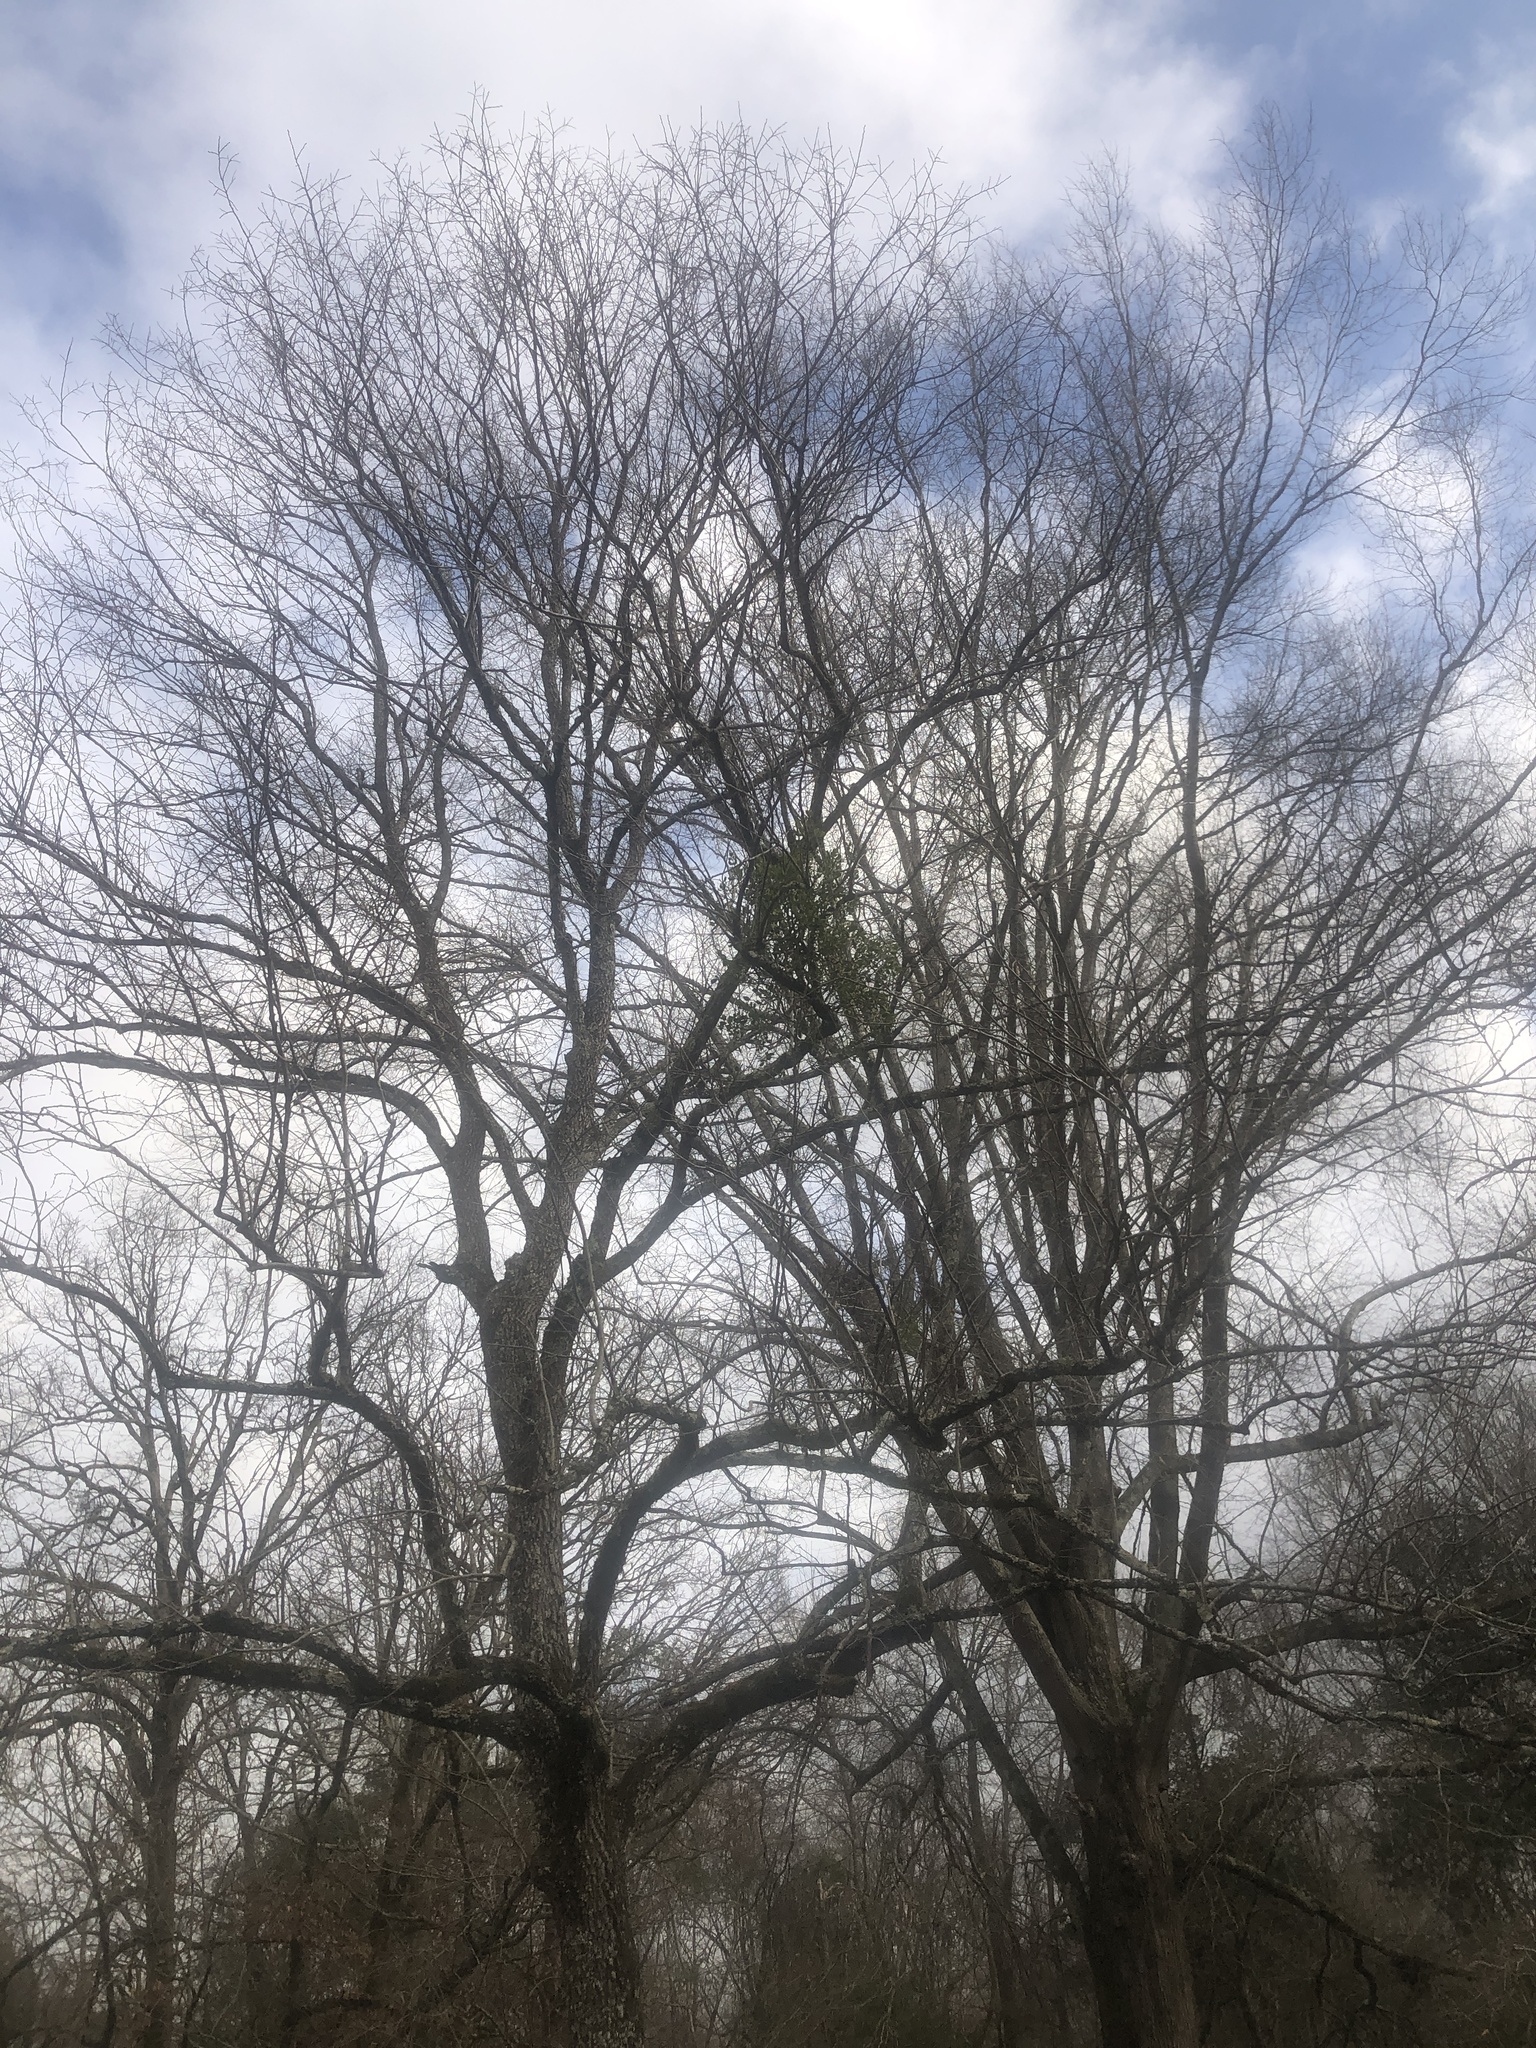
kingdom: Plantae
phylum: Tracheophyta
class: Magnoliopsida
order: Santalales
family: Viscaceae
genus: Phoradendron
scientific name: Phoradendron leucarpum
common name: Pacific mistletoe
